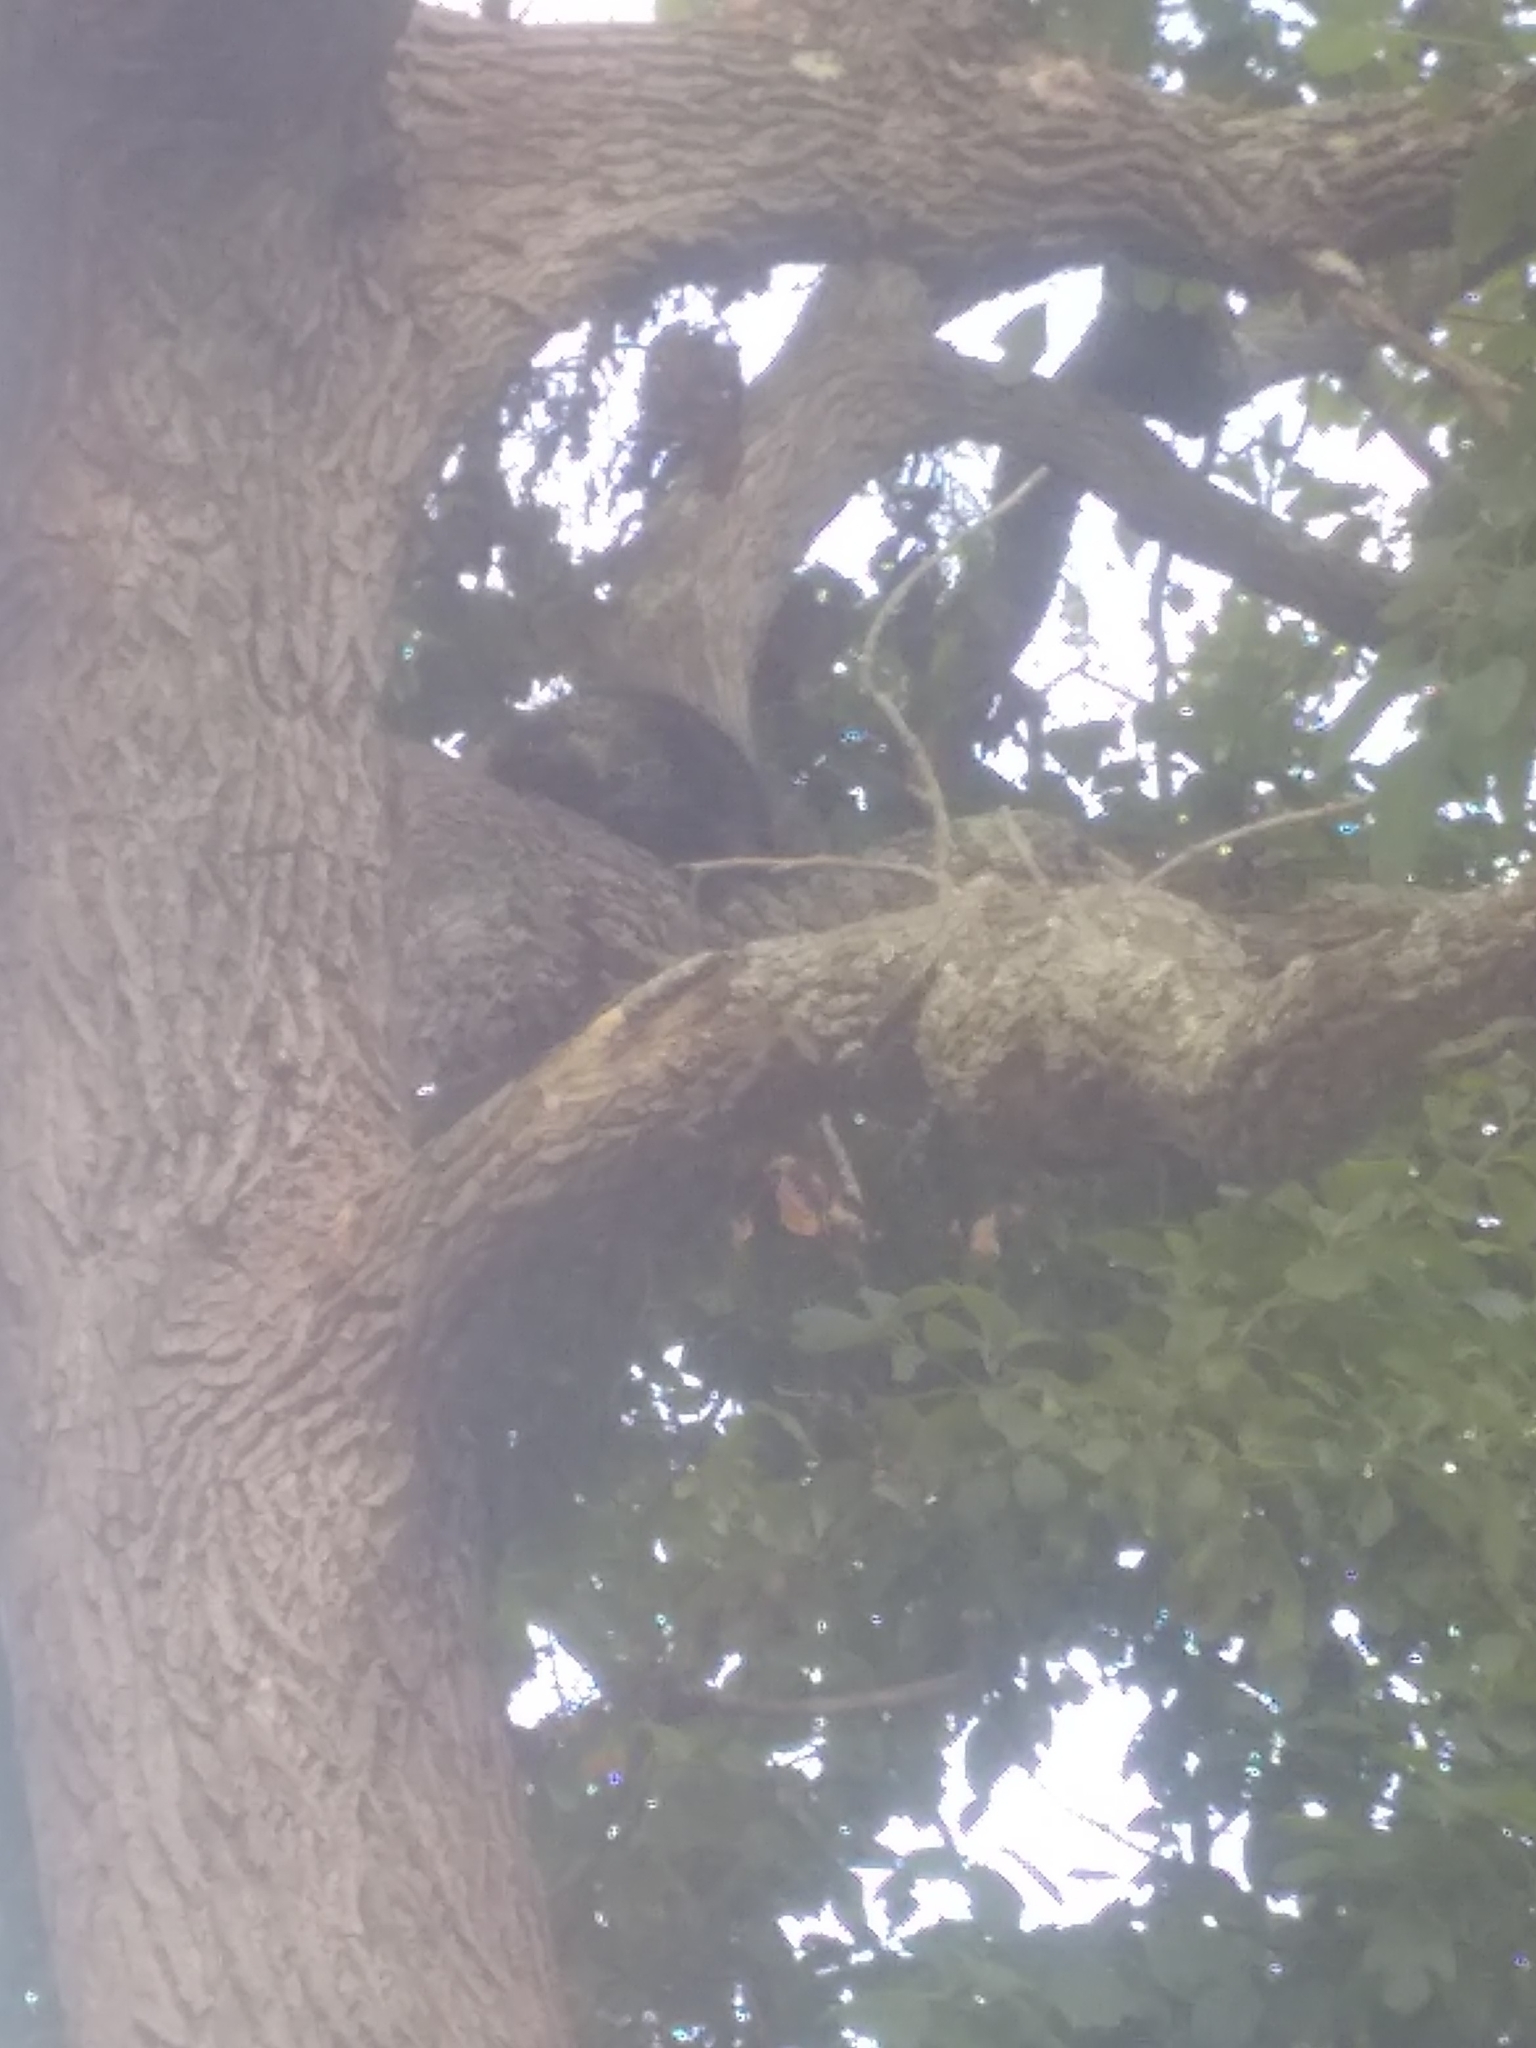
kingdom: Animalia
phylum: Chordata
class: Mammalia
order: Rodentia
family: Erethizontidae
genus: Erethizon
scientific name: Erethizon dorsatus
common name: North american porcupine
